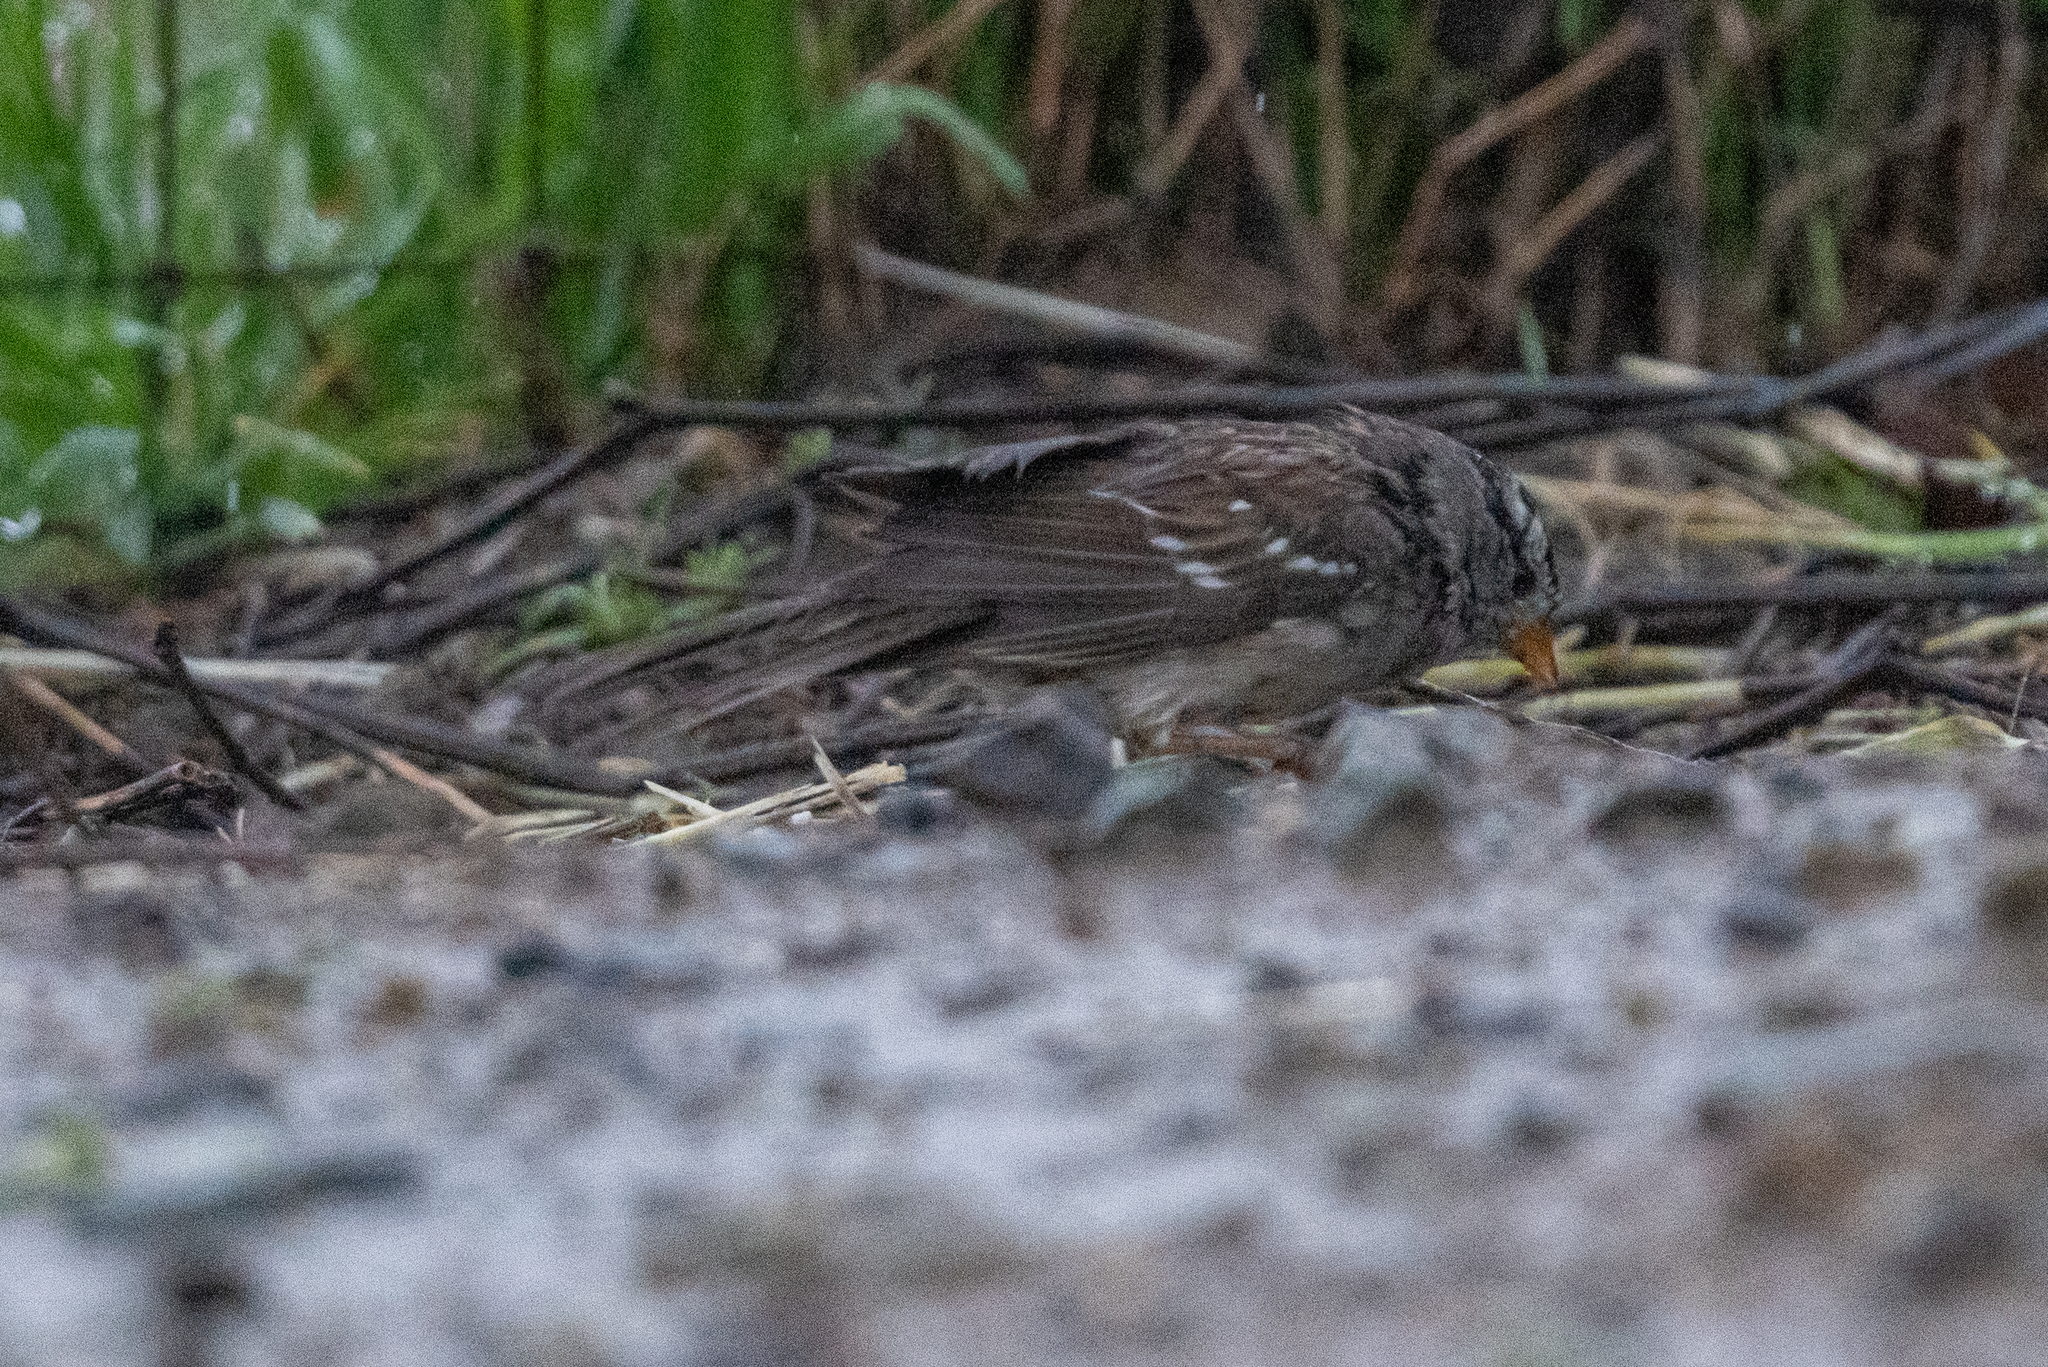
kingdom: Animalia
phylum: Chordata
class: Aves
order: Passeriformes
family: Passerellidae
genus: Zonotrichia
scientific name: Zonotrichia leucophrys
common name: White-crowned sparrow
